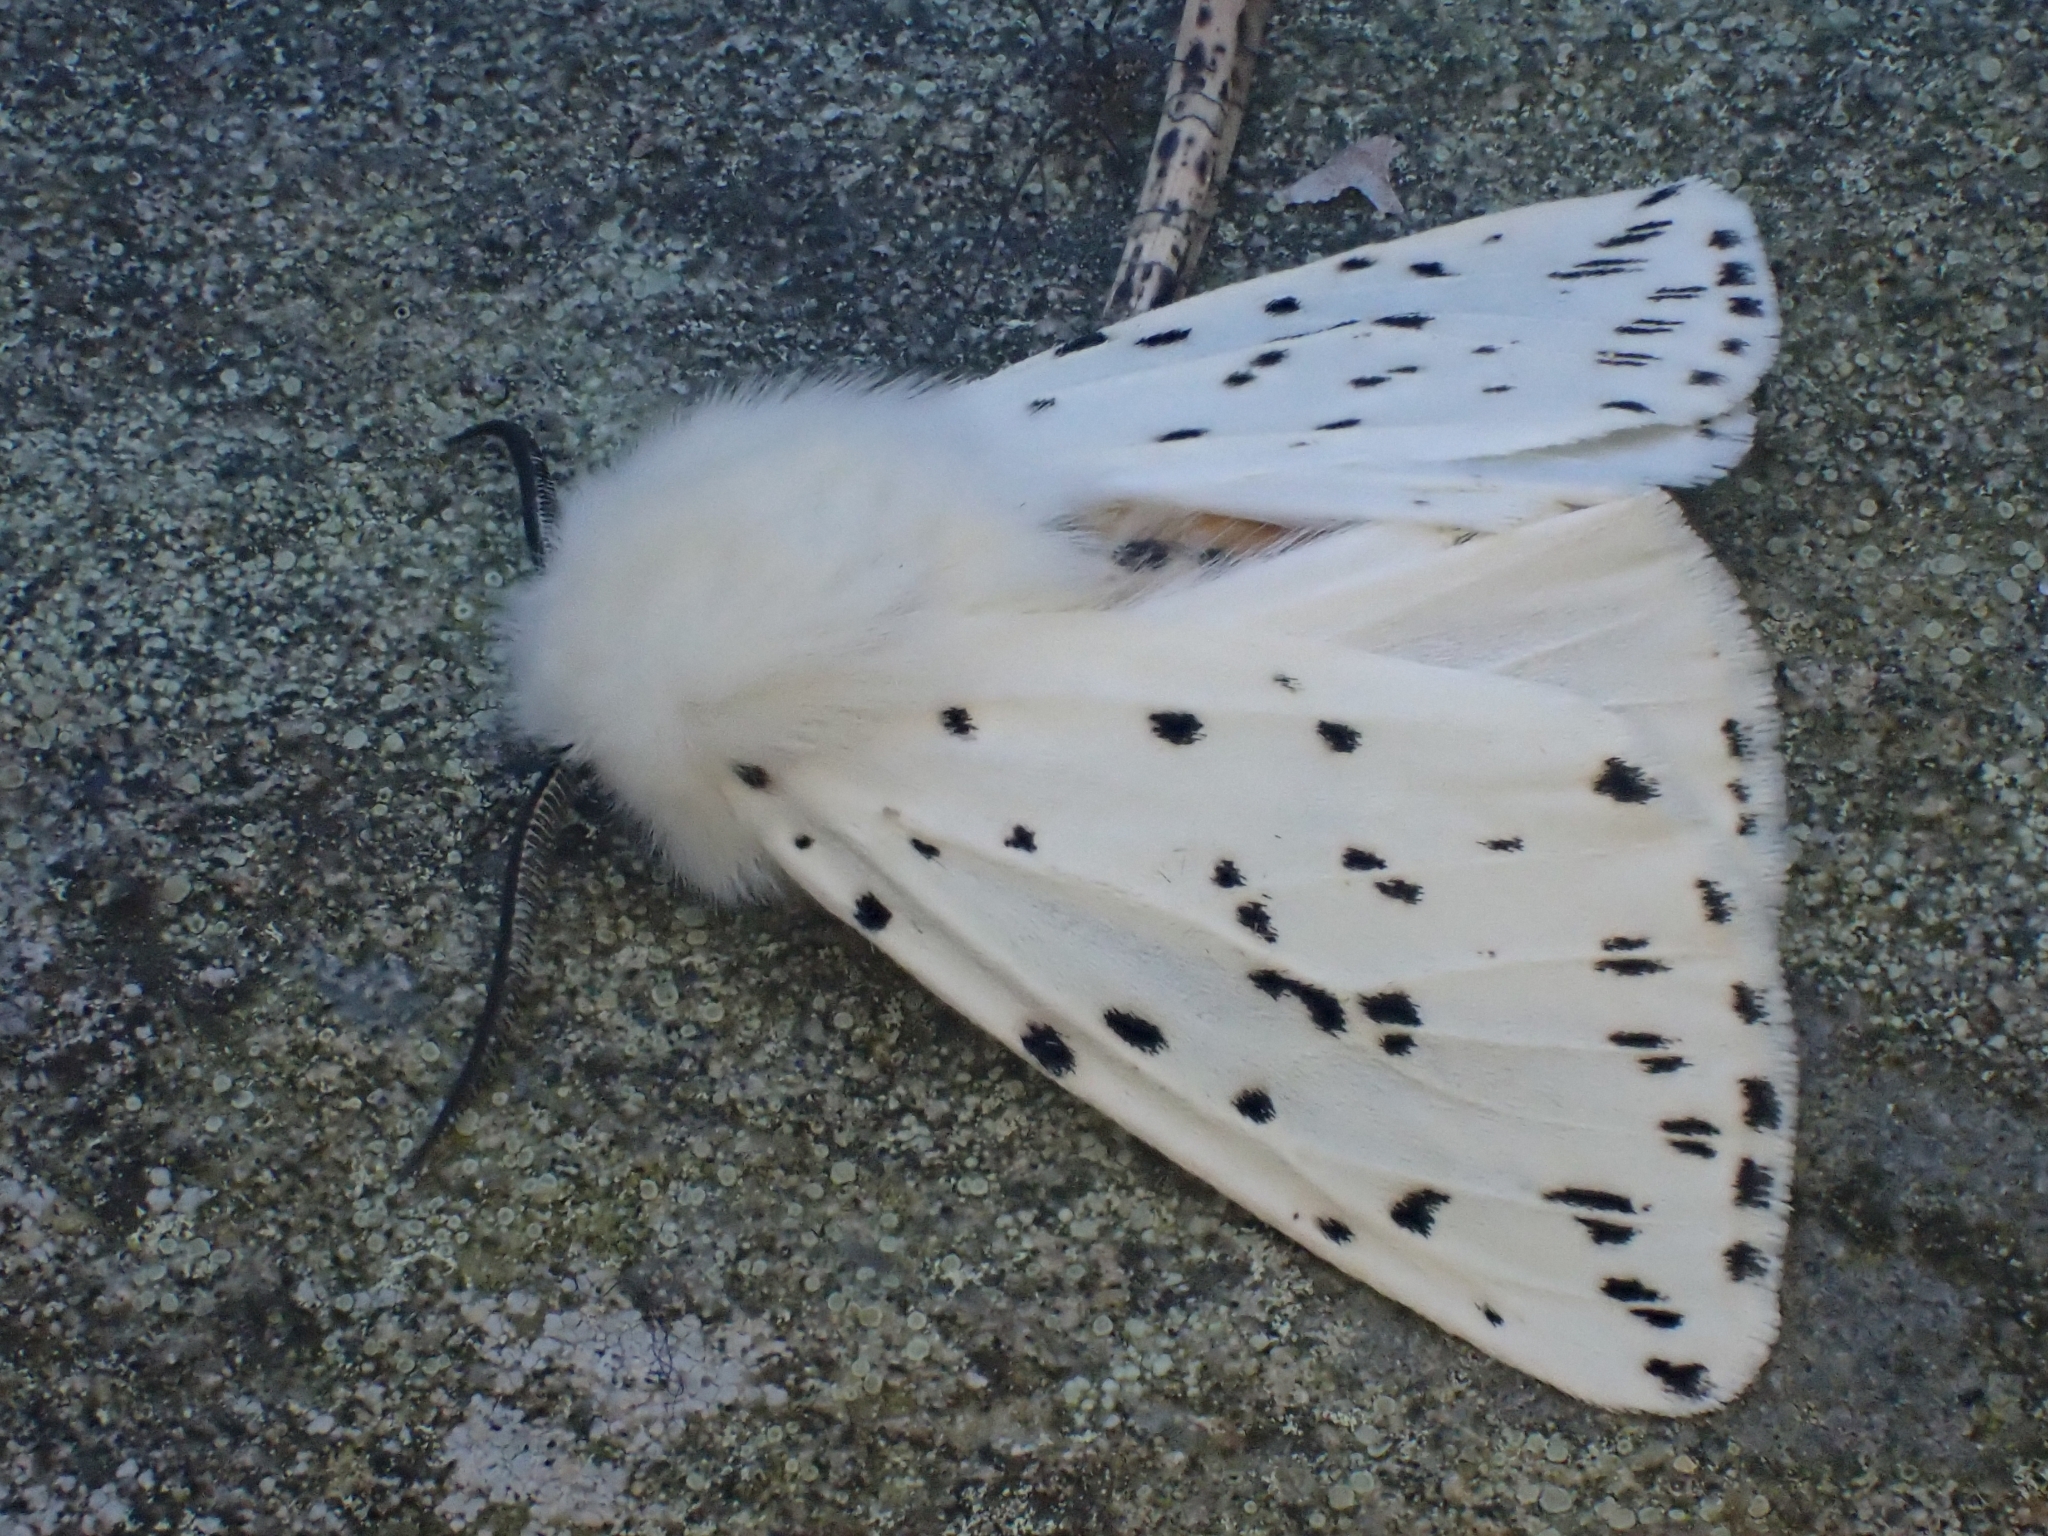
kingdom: Animalia
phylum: Arthropoda
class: Insecta
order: Lepidoptera
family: Erebidae
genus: Spilosoma
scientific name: Spilosoma lubricipeda
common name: White ermine
